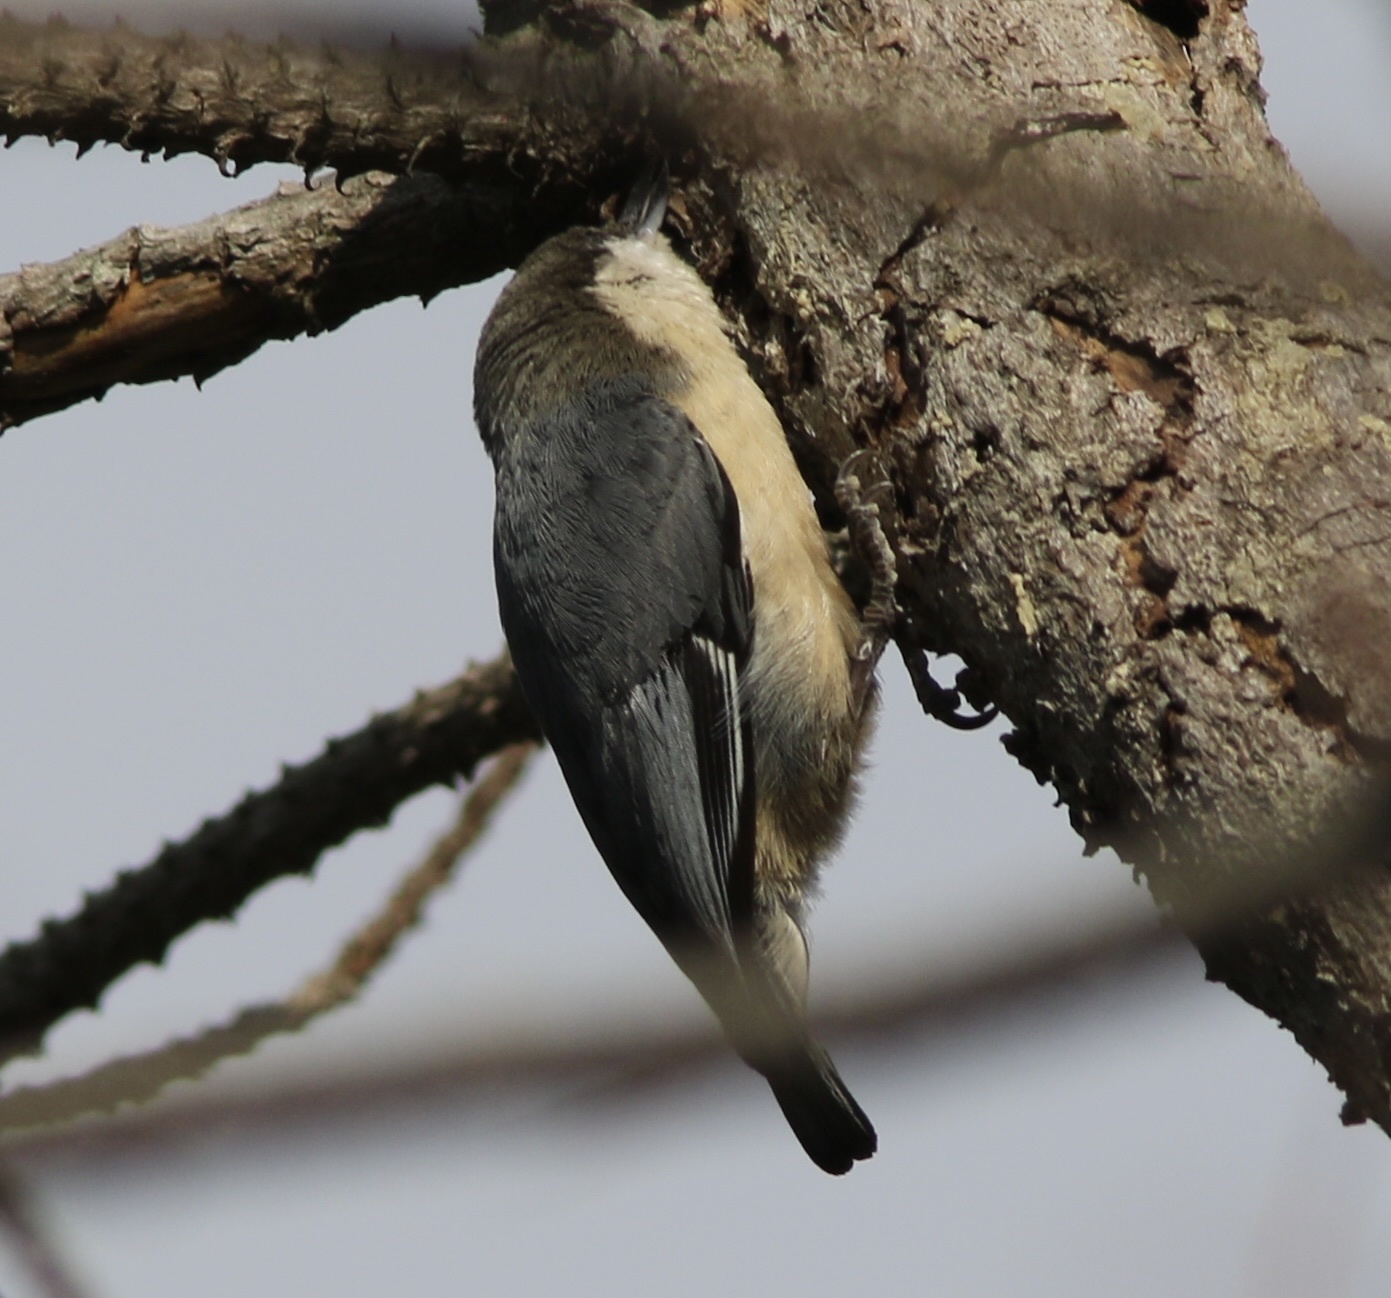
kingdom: Animalia
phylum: Chordata
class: Aves
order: Passeriformes
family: Sittidae
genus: Sitta
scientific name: Sitta pygmaea
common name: Pygmy nuthatch
